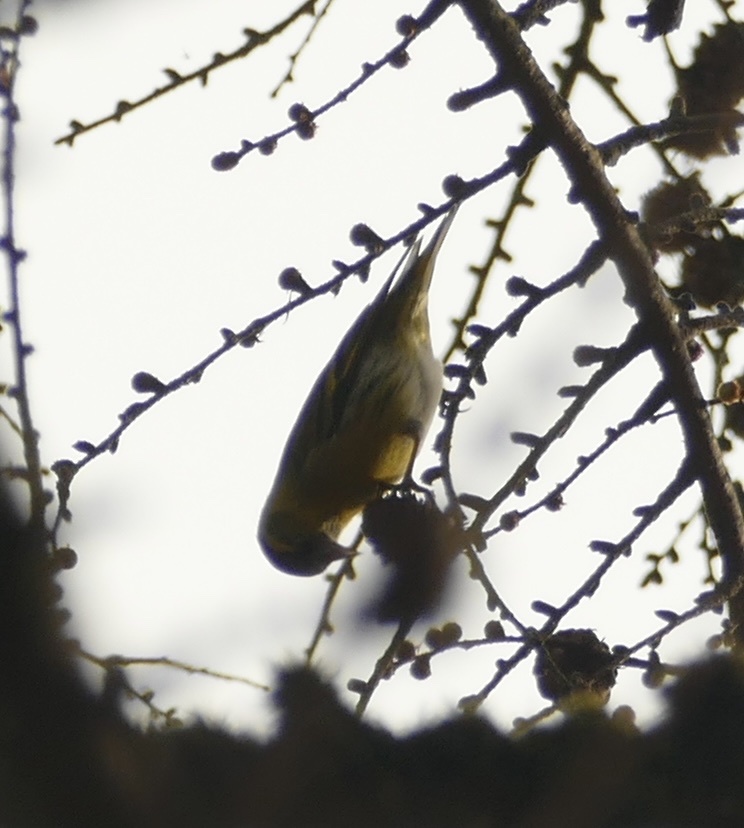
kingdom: Animalia
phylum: Chordata
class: Aves
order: Passeriformes
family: Fringillidae
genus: Spinus
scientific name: Spinus spinus
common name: Eurasian siskin
